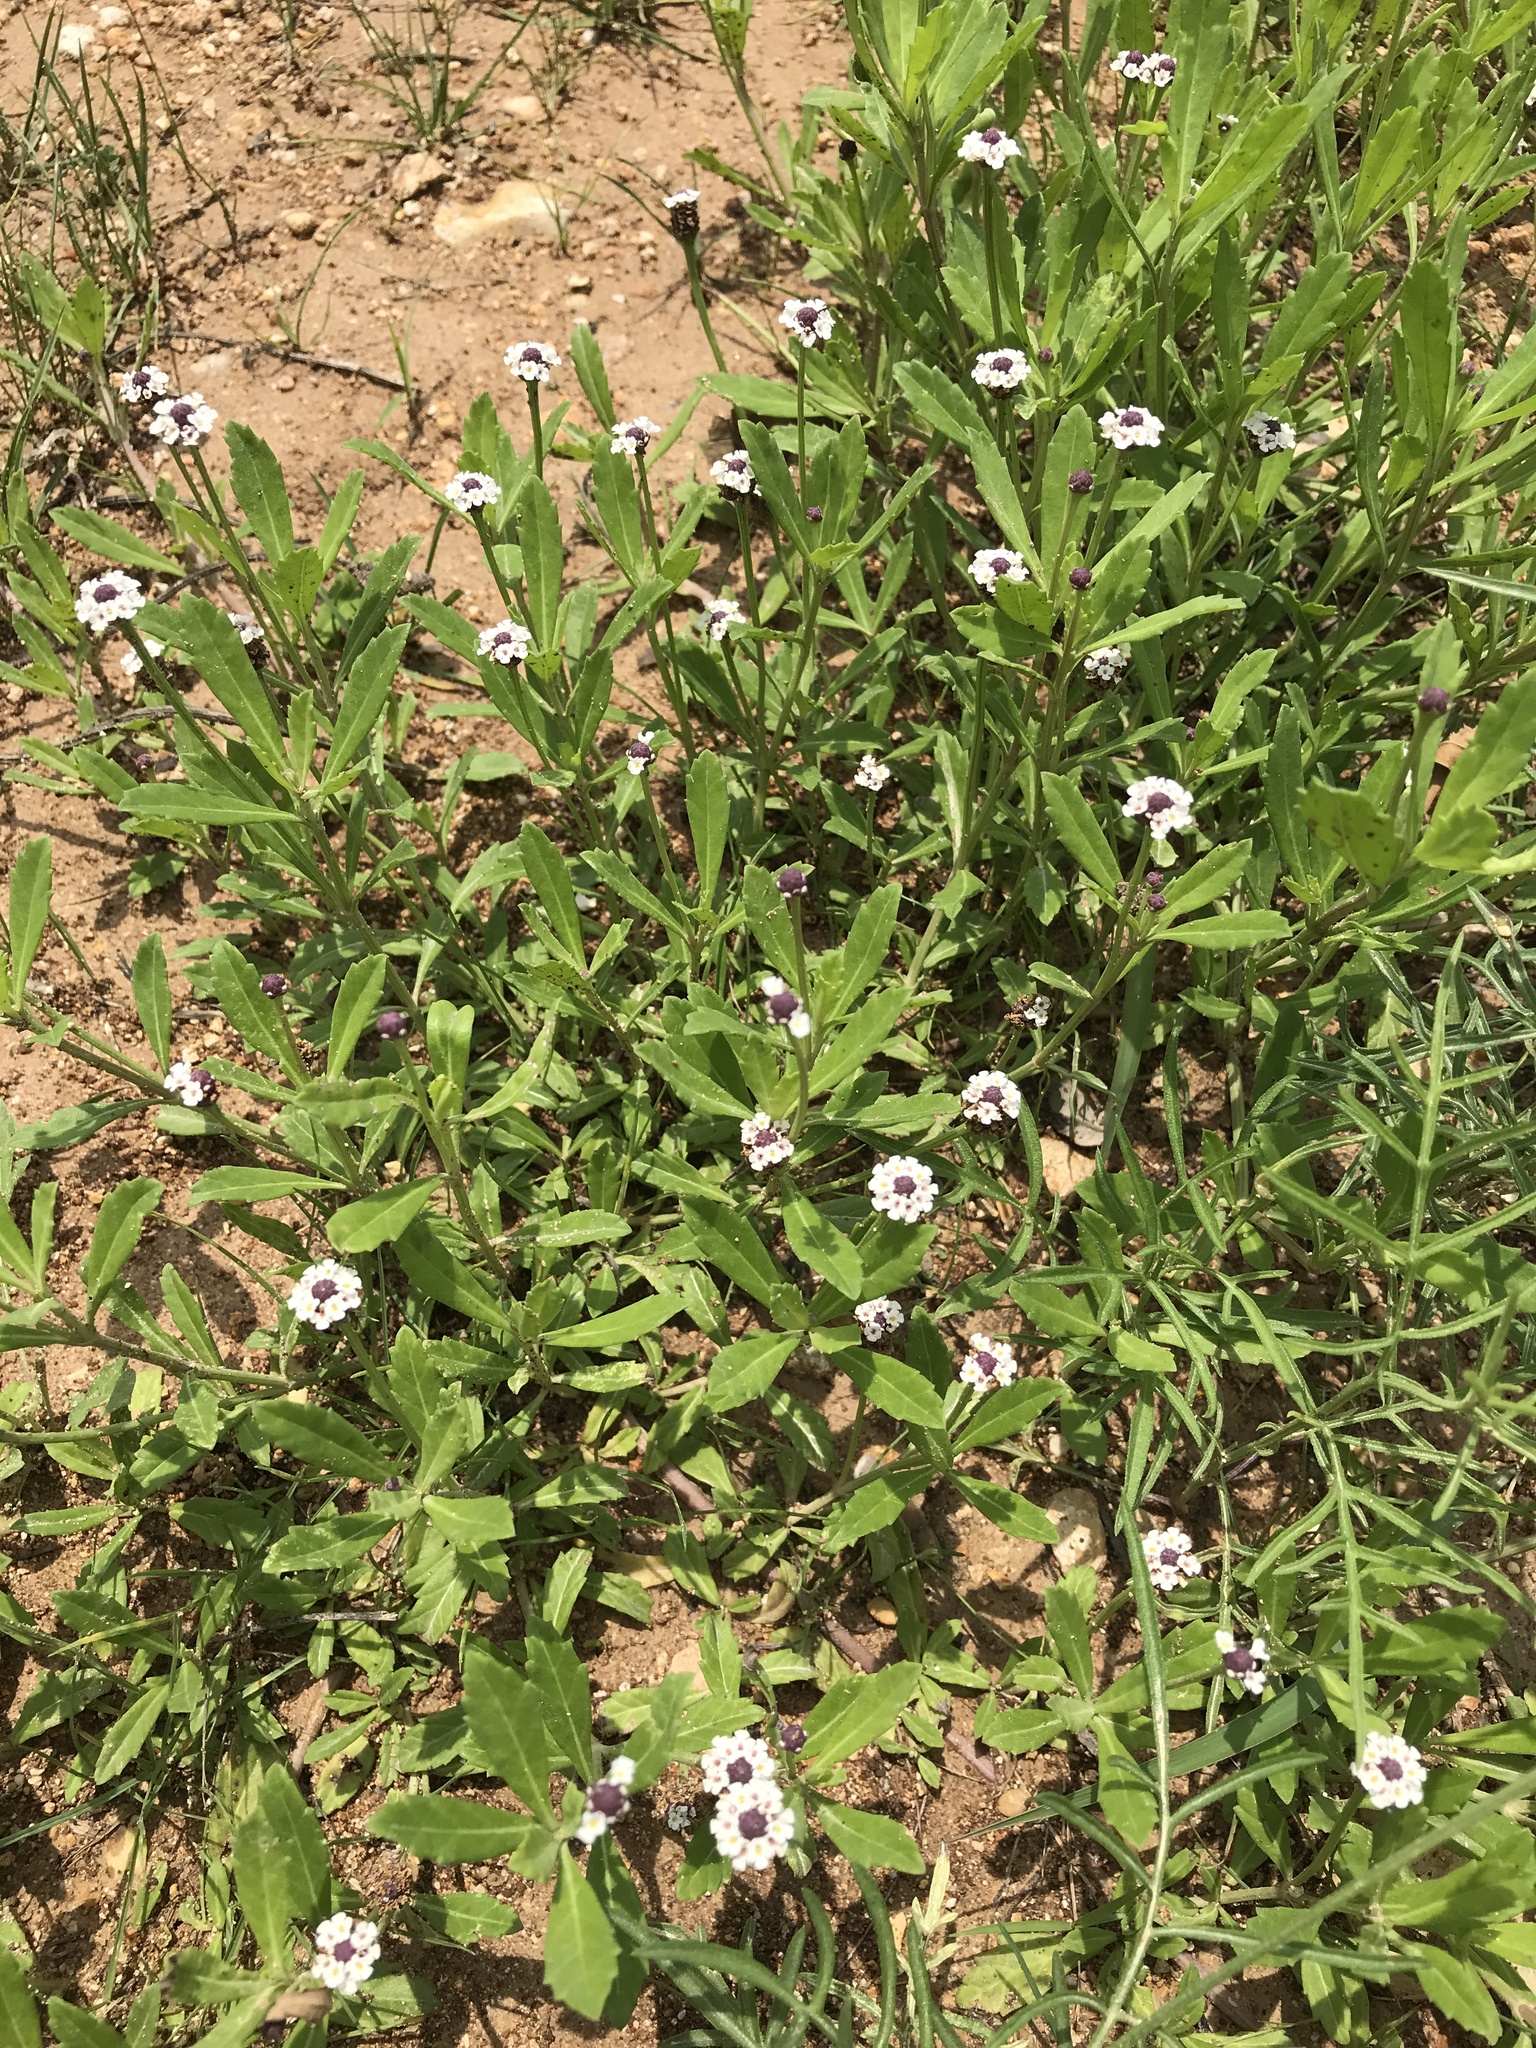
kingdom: Plantae
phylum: Tracheophyta
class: Magnoliopsida
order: Lamiales
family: Verbenaceae
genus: Phyla
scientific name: Phyla nodiflora
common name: Frogfruit
